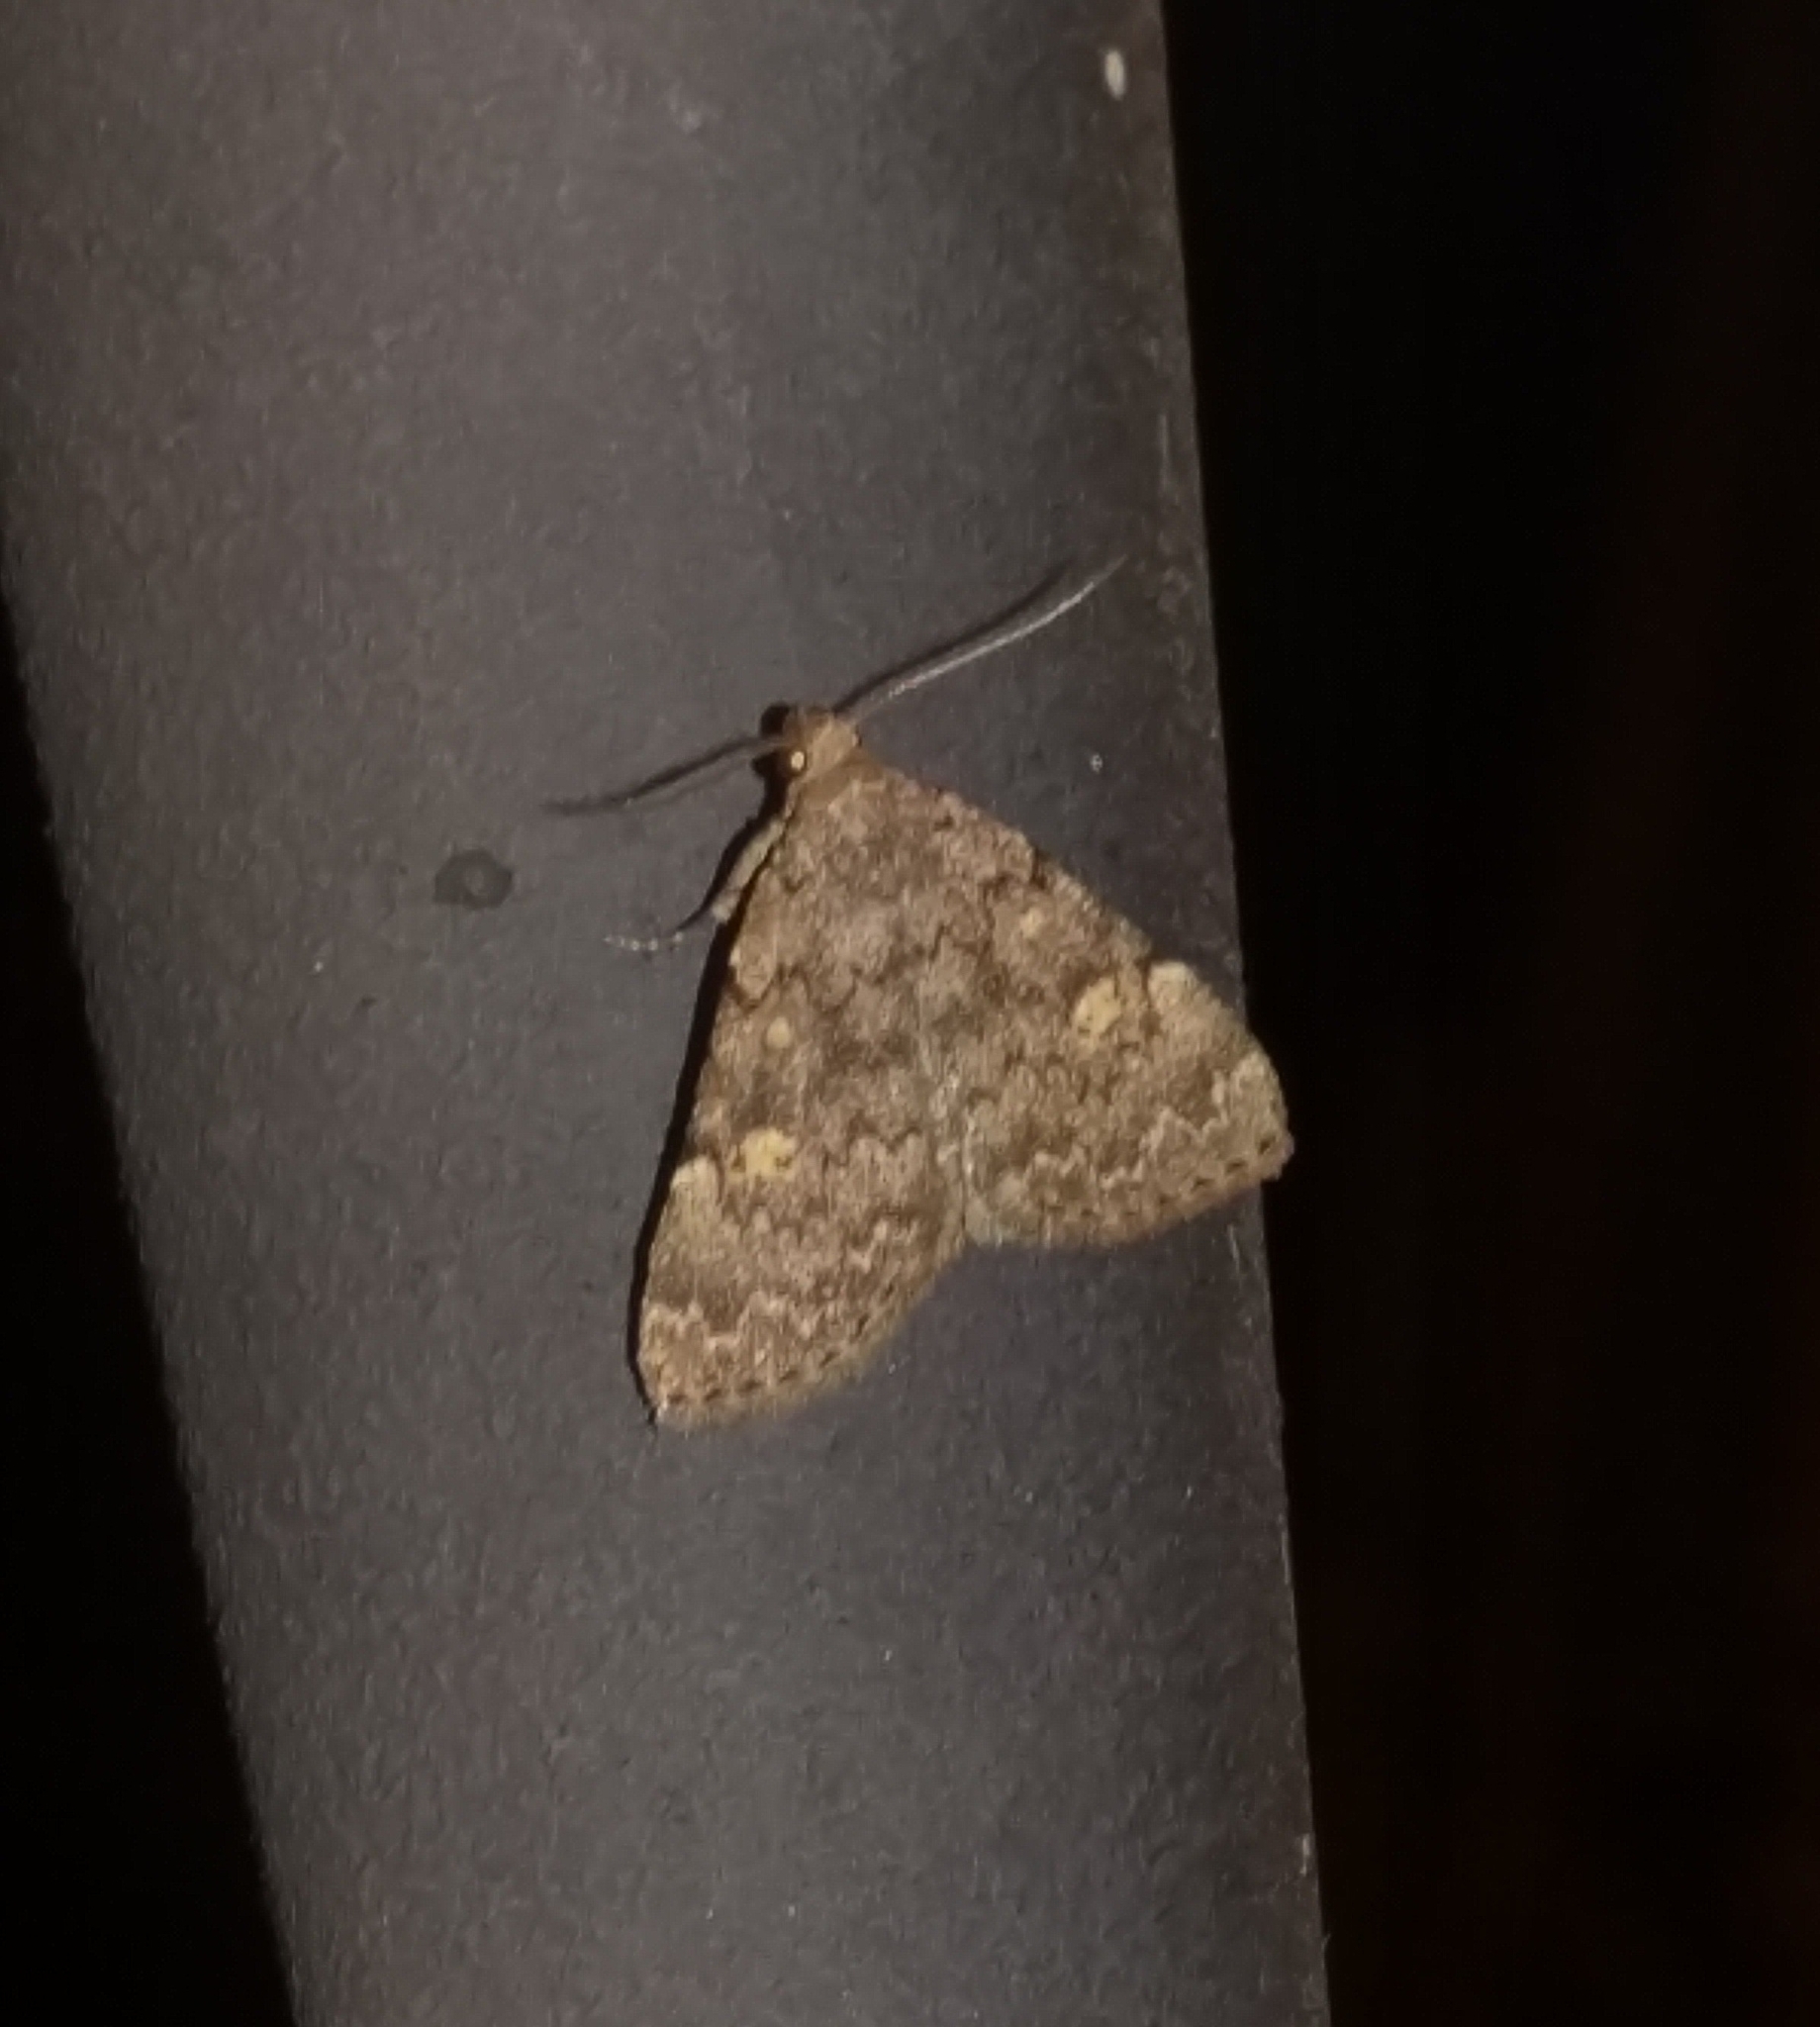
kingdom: Animalia
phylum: Arthropoda
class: Insecta
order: Lepidoptera
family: Erebidae
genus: Idia
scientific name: Idia aemula
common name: Common idia moth
